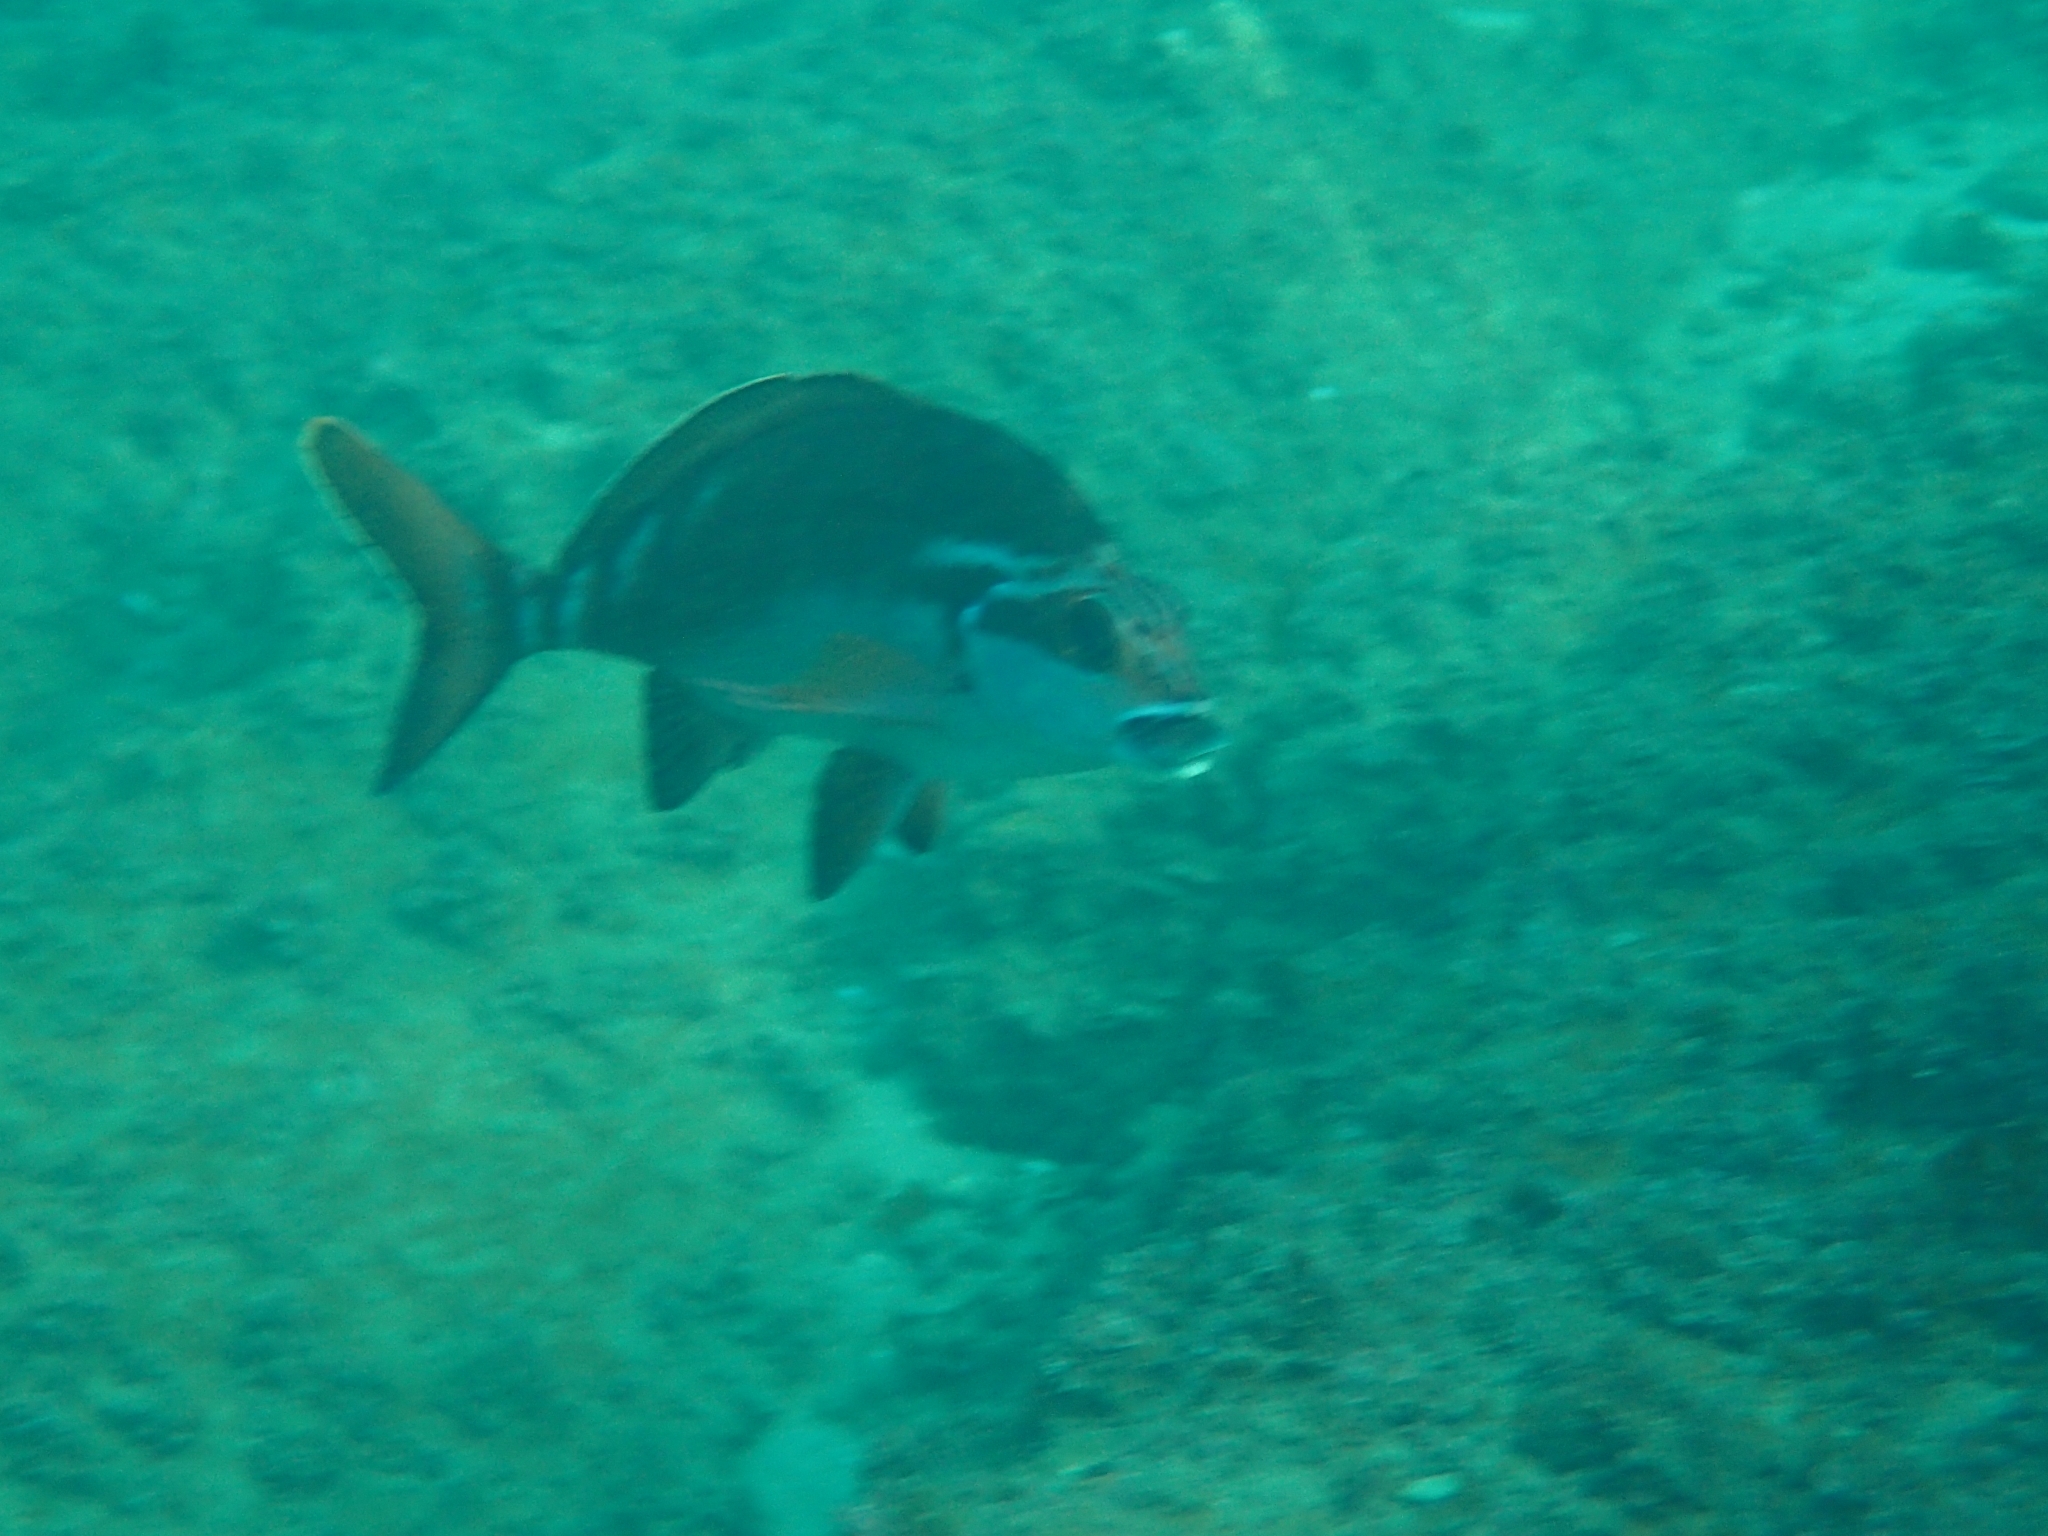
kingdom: Animalia
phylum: Chordata
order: Perciformes
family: Latridae
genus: Morwong
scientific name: Morwong fuscus
